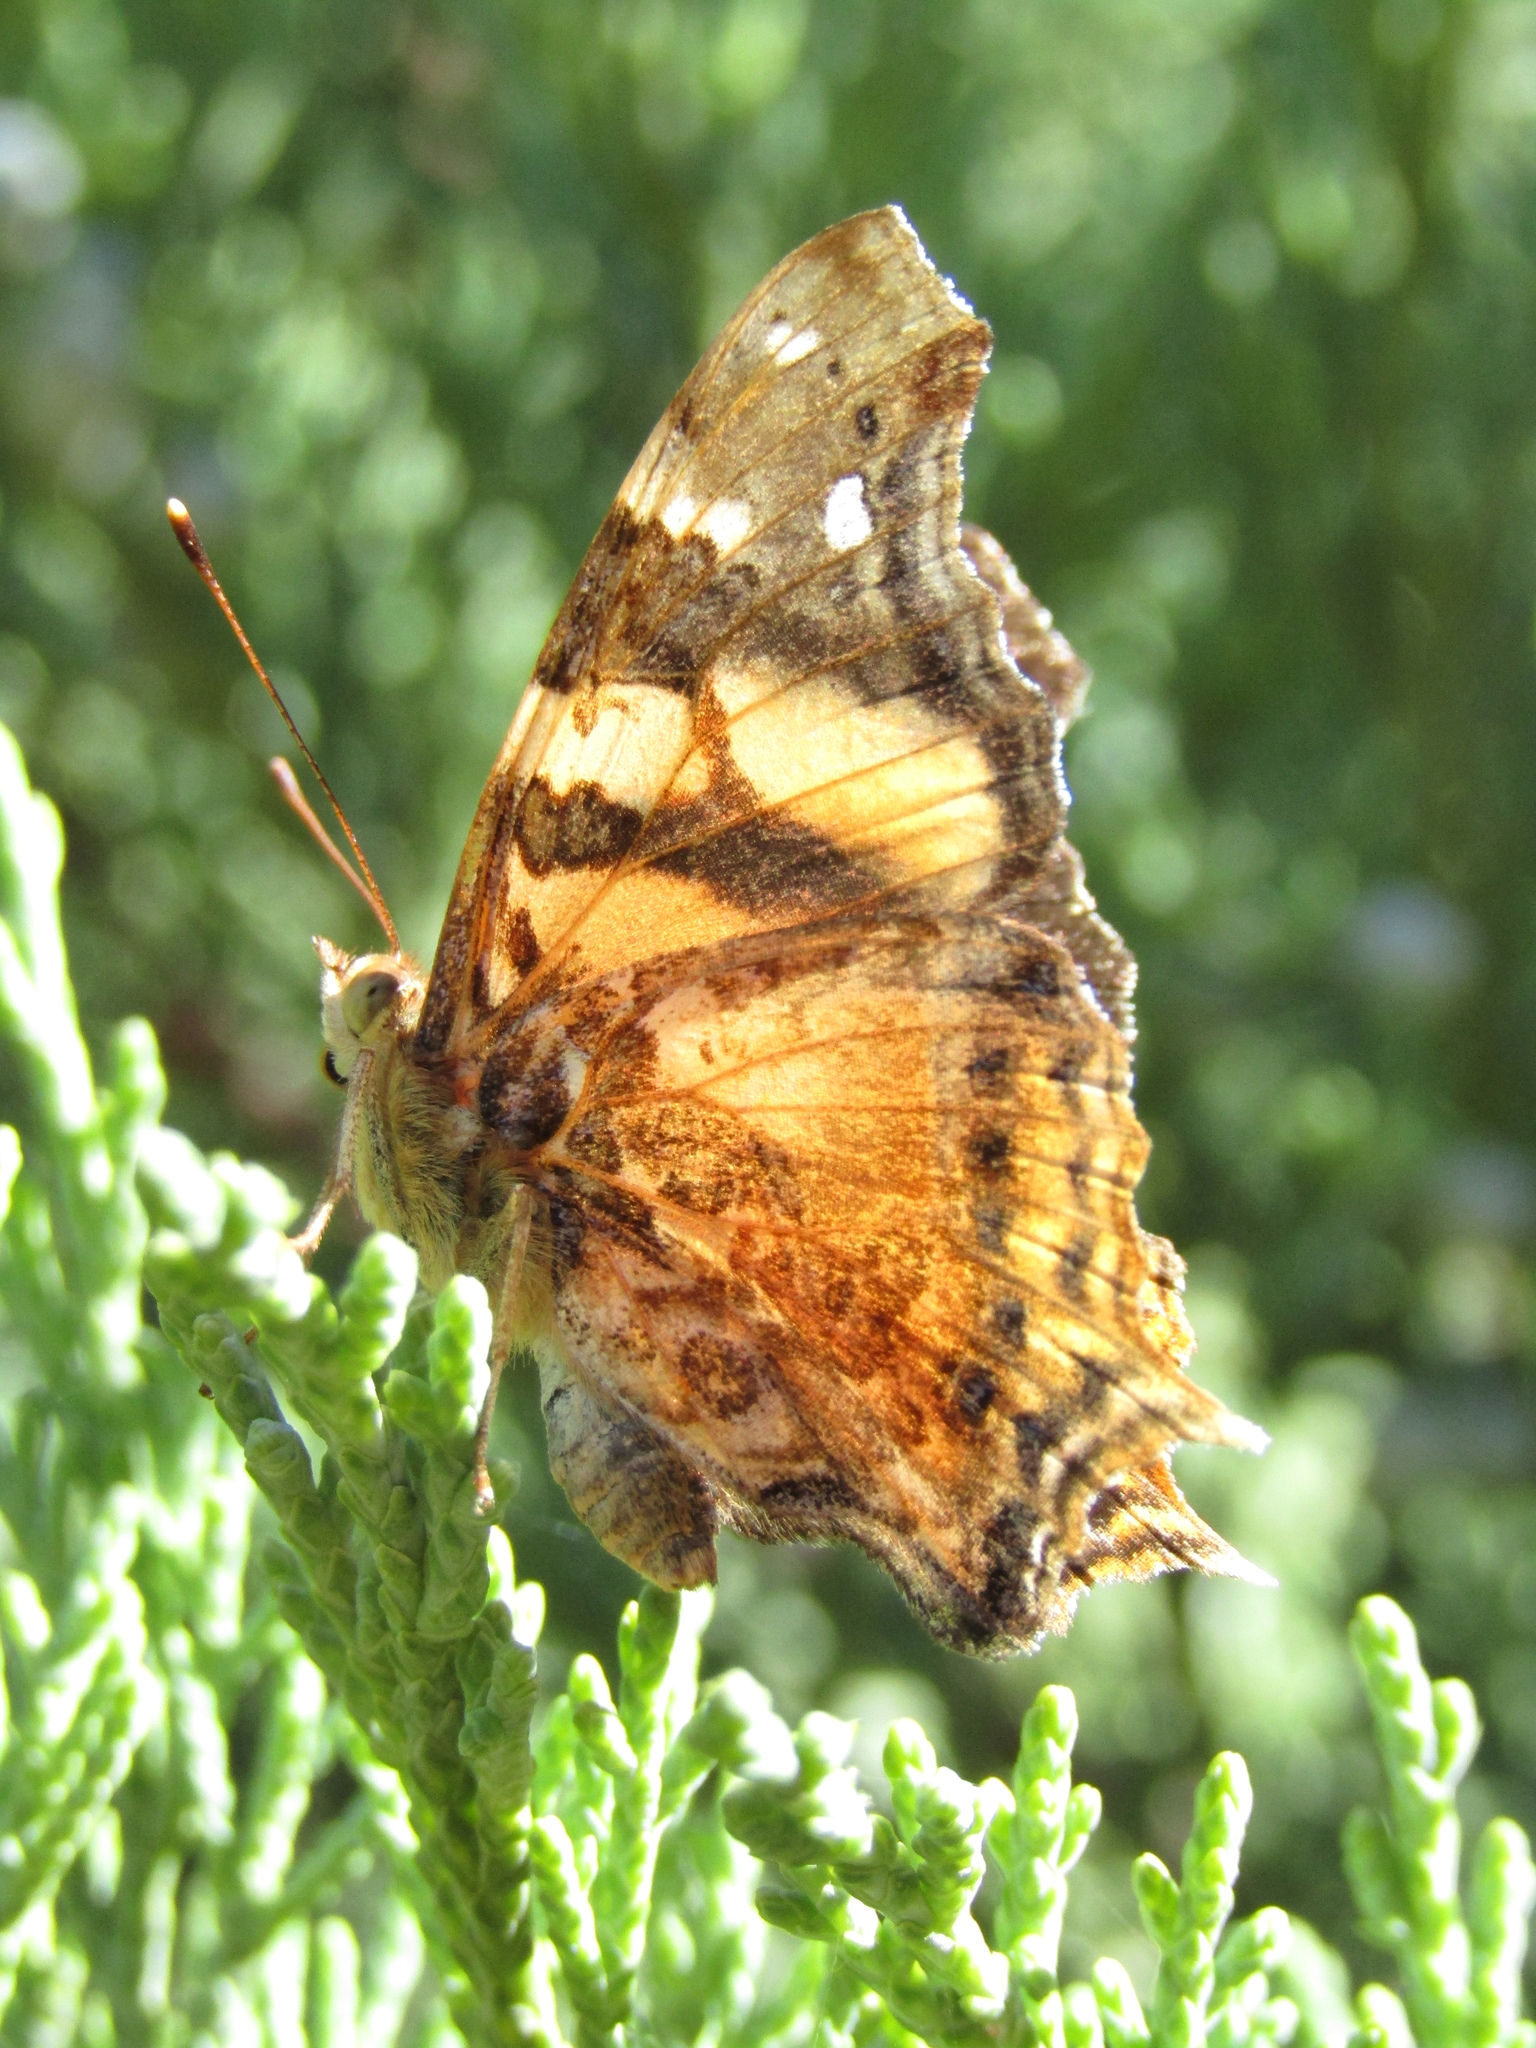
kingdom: Animalia
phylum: Arthropoda
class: Insecta
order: Lepidoptera
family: Nymphalidae
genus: Hypanartia
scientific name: Hypanartia bella
